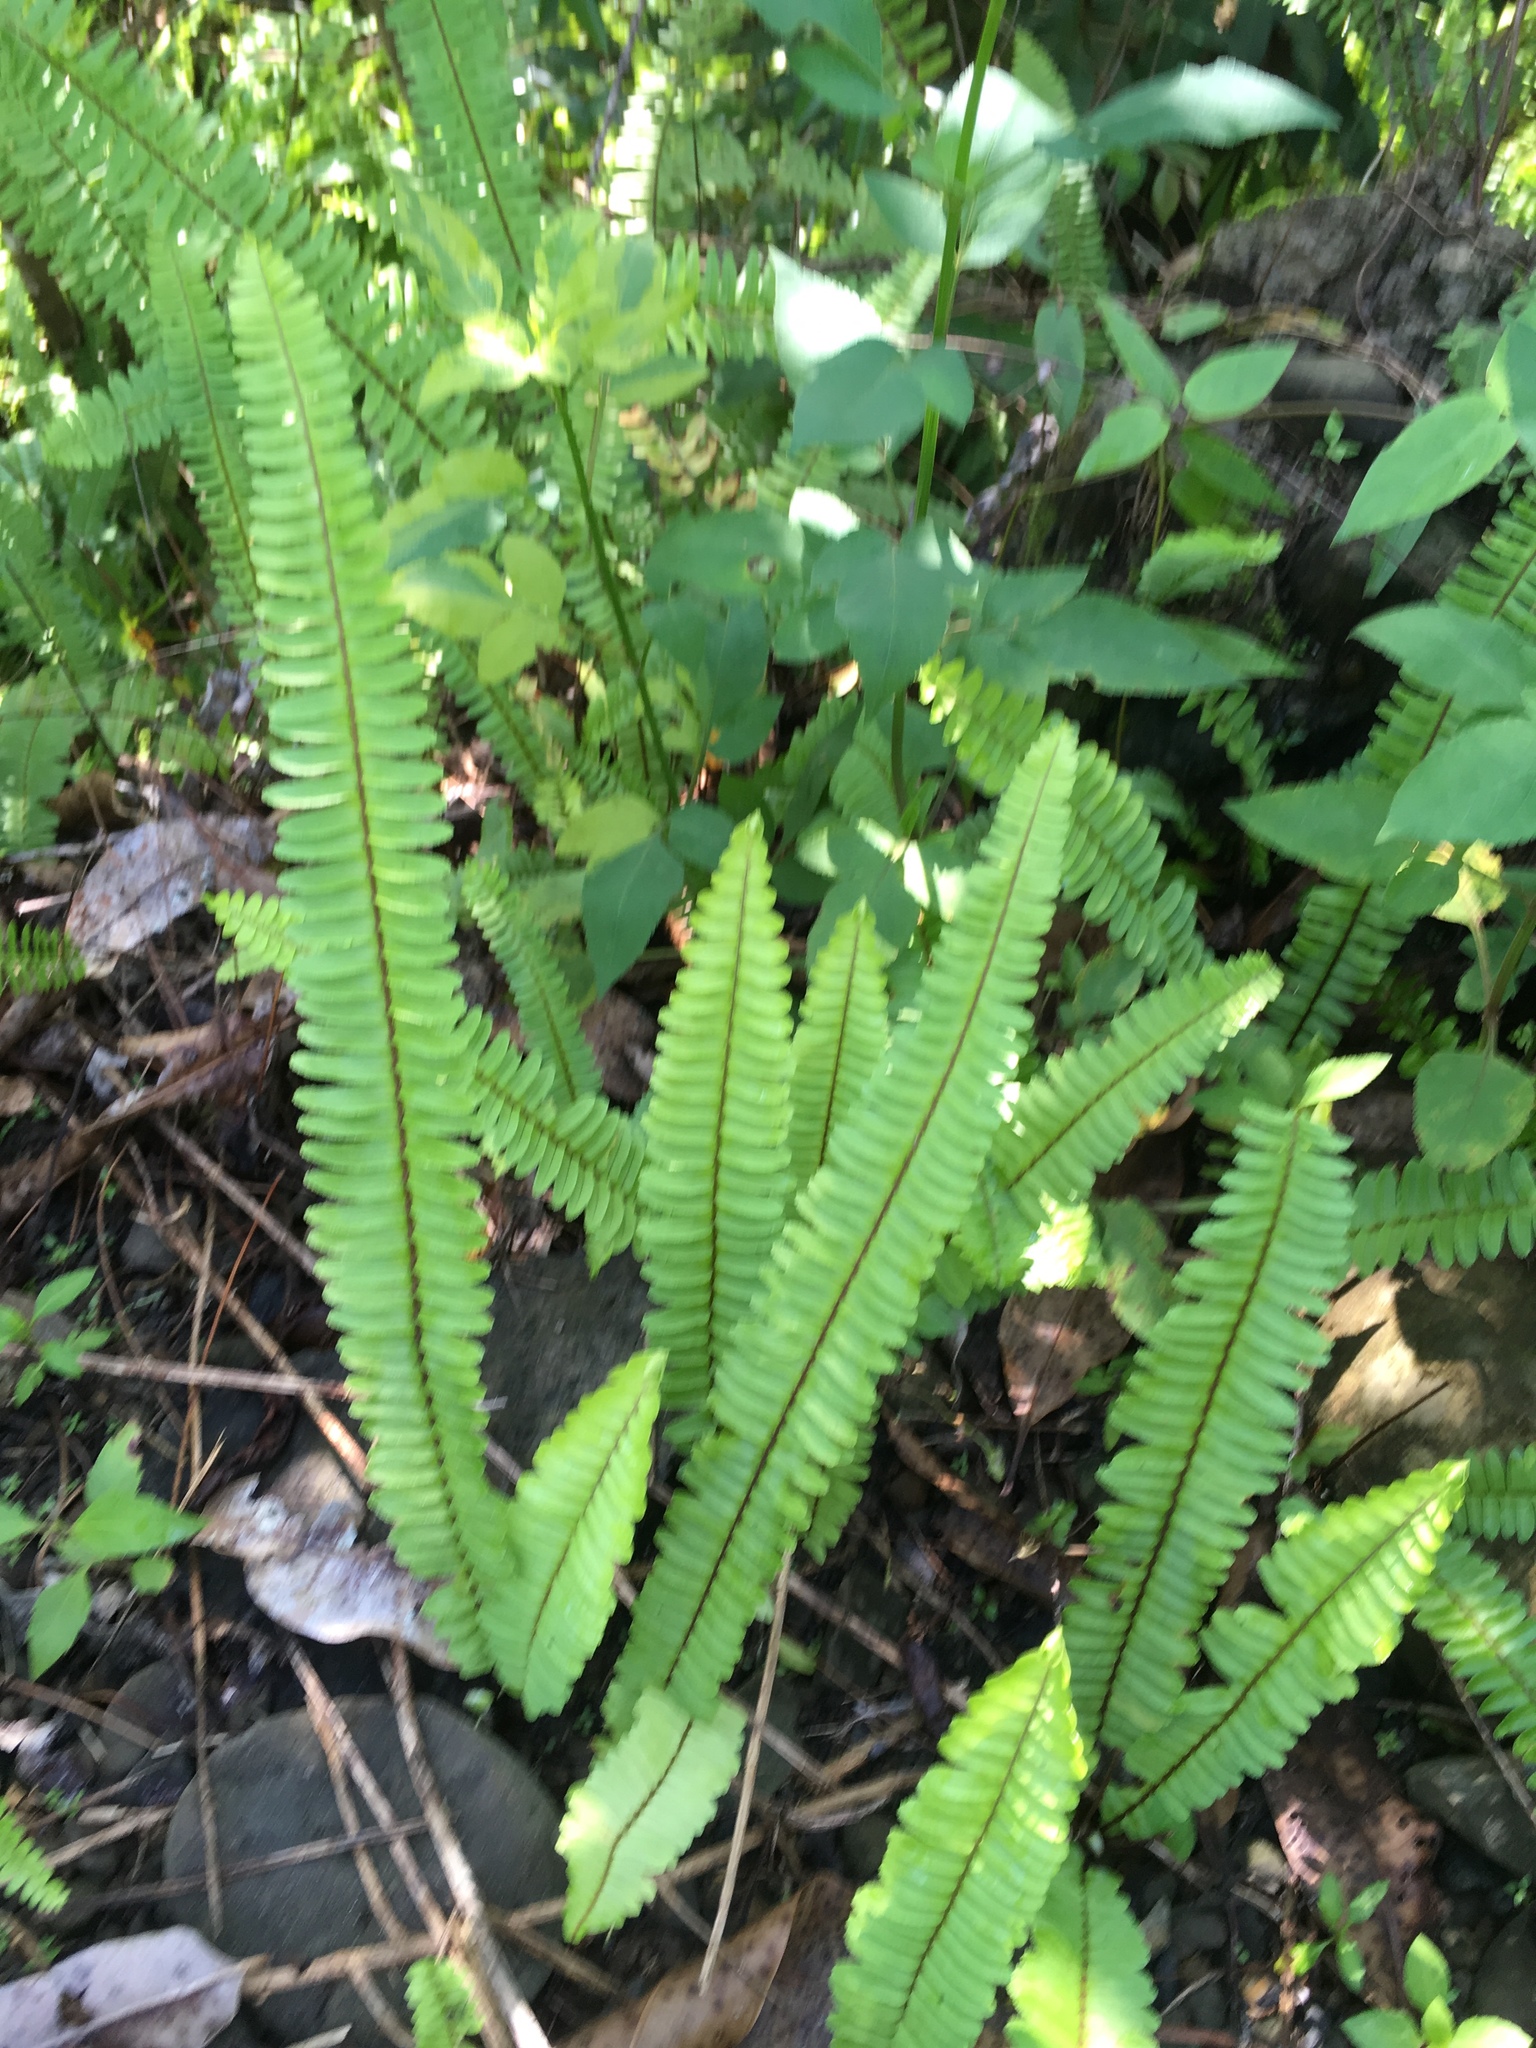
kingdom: Plantae
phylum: Tracheophyta
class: Polypodiopsida
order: Polypodiales
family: Nephrolepidaceae
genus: Nephrolepis
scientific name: Nephrolepis cordifolia
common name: Narrow swordfern
